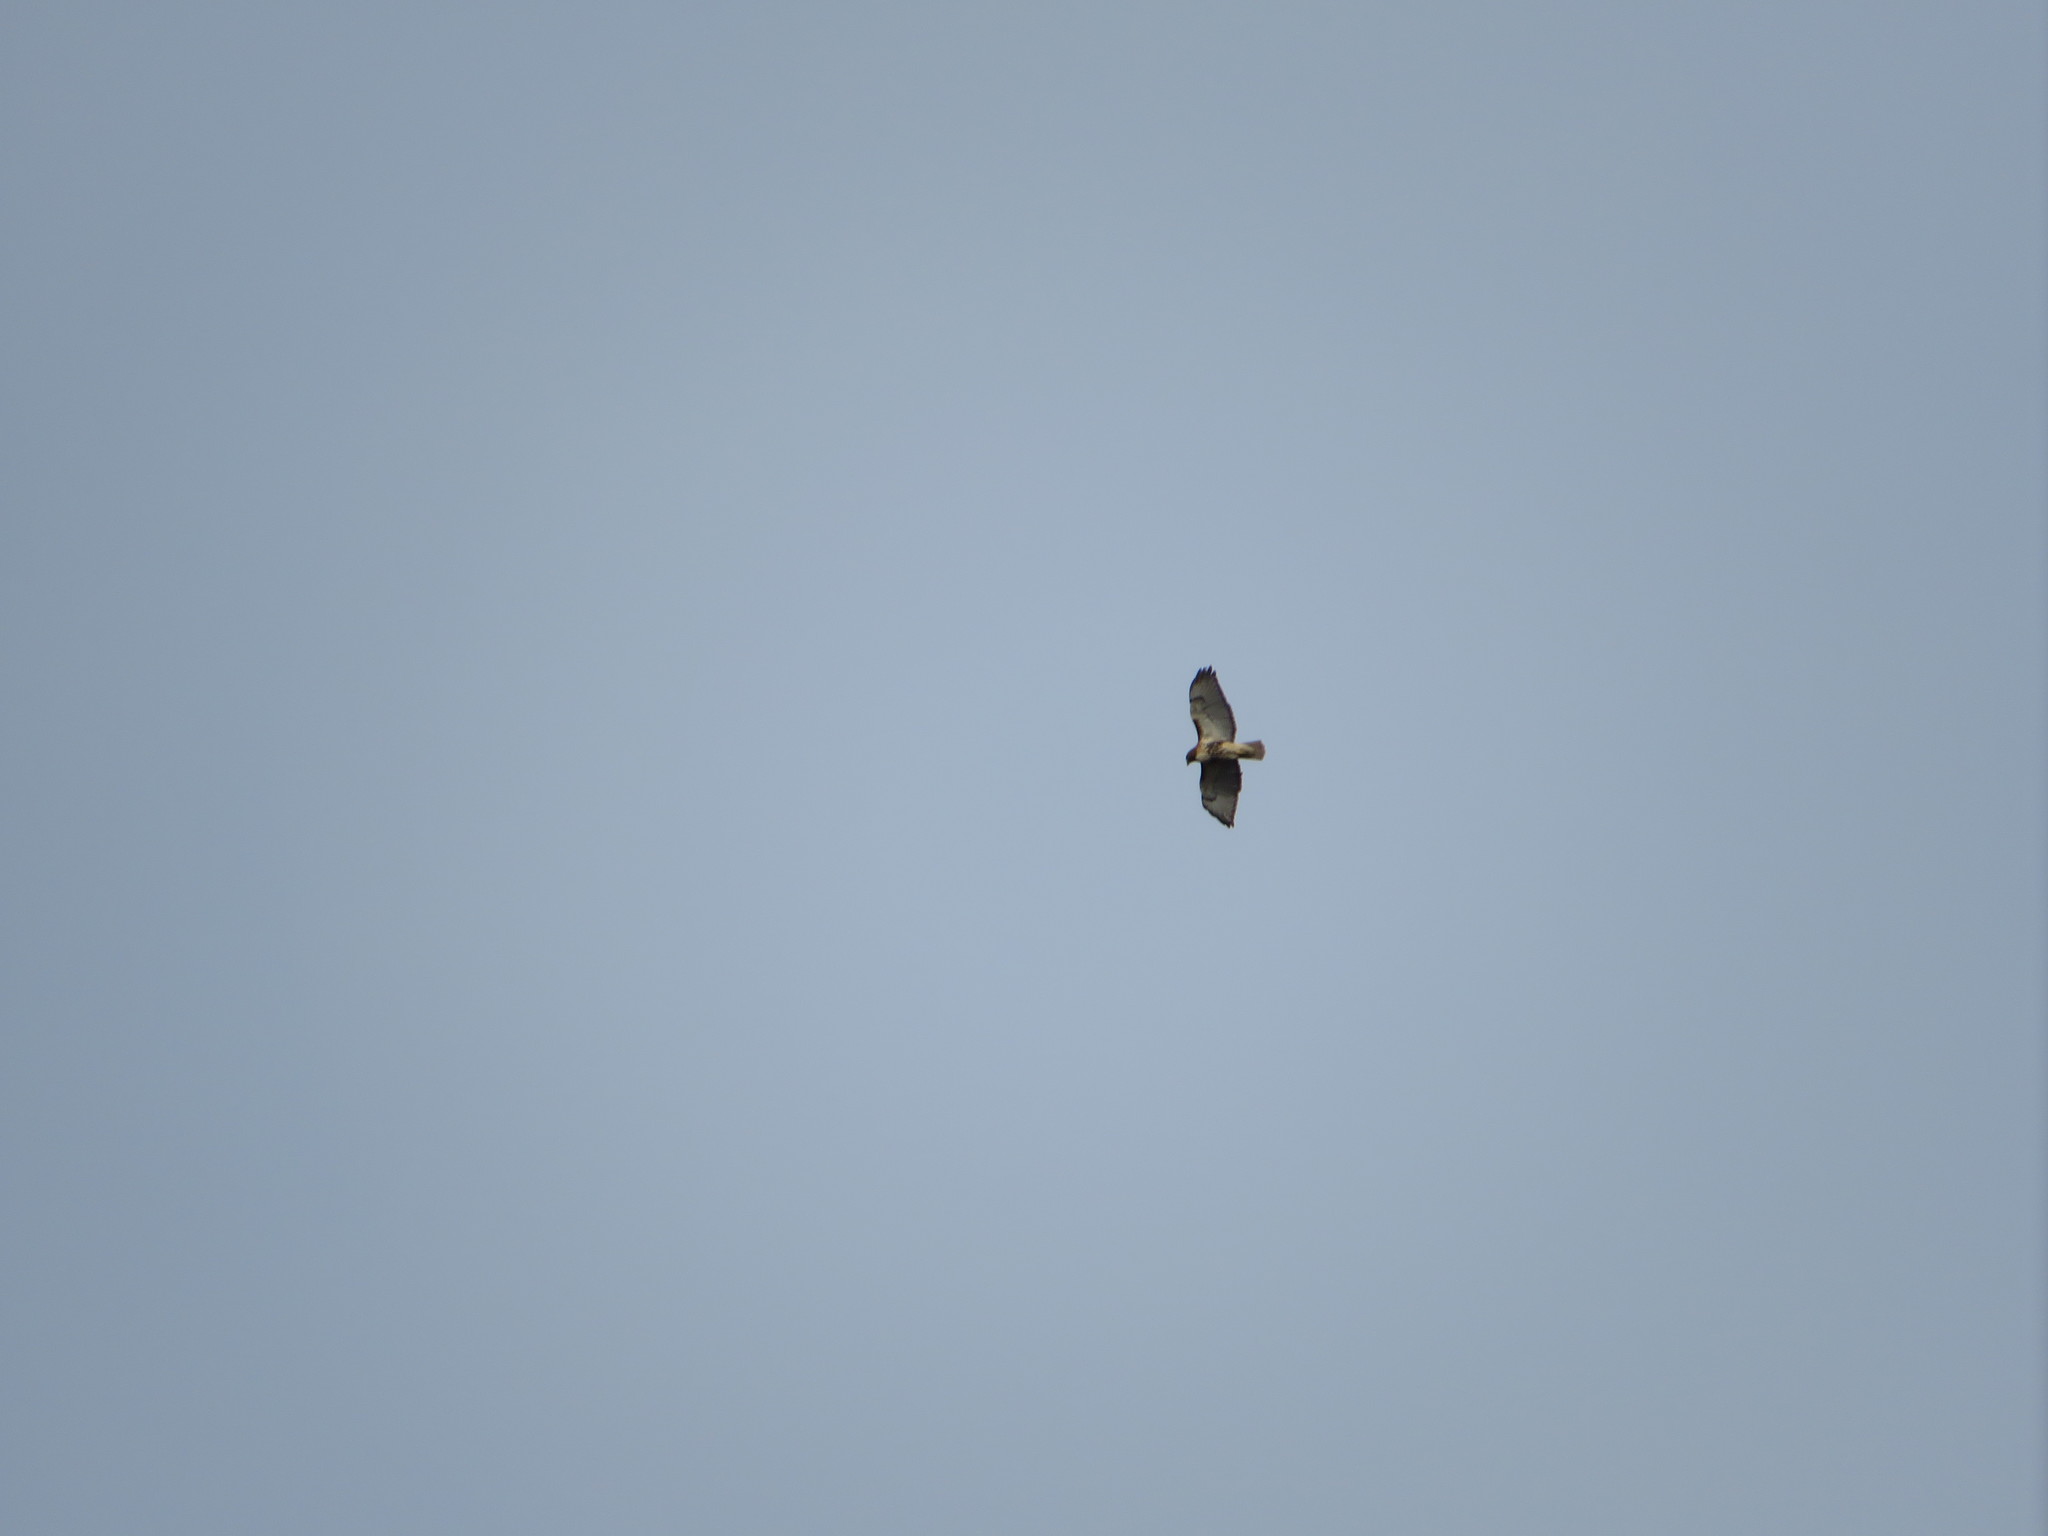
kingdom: Animalia
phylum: Chordata
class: Aves
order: Accipitriformes
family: Accipitridae
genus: Buteo
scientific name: Buteo jamaicensis
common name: Red-tailed hawk
